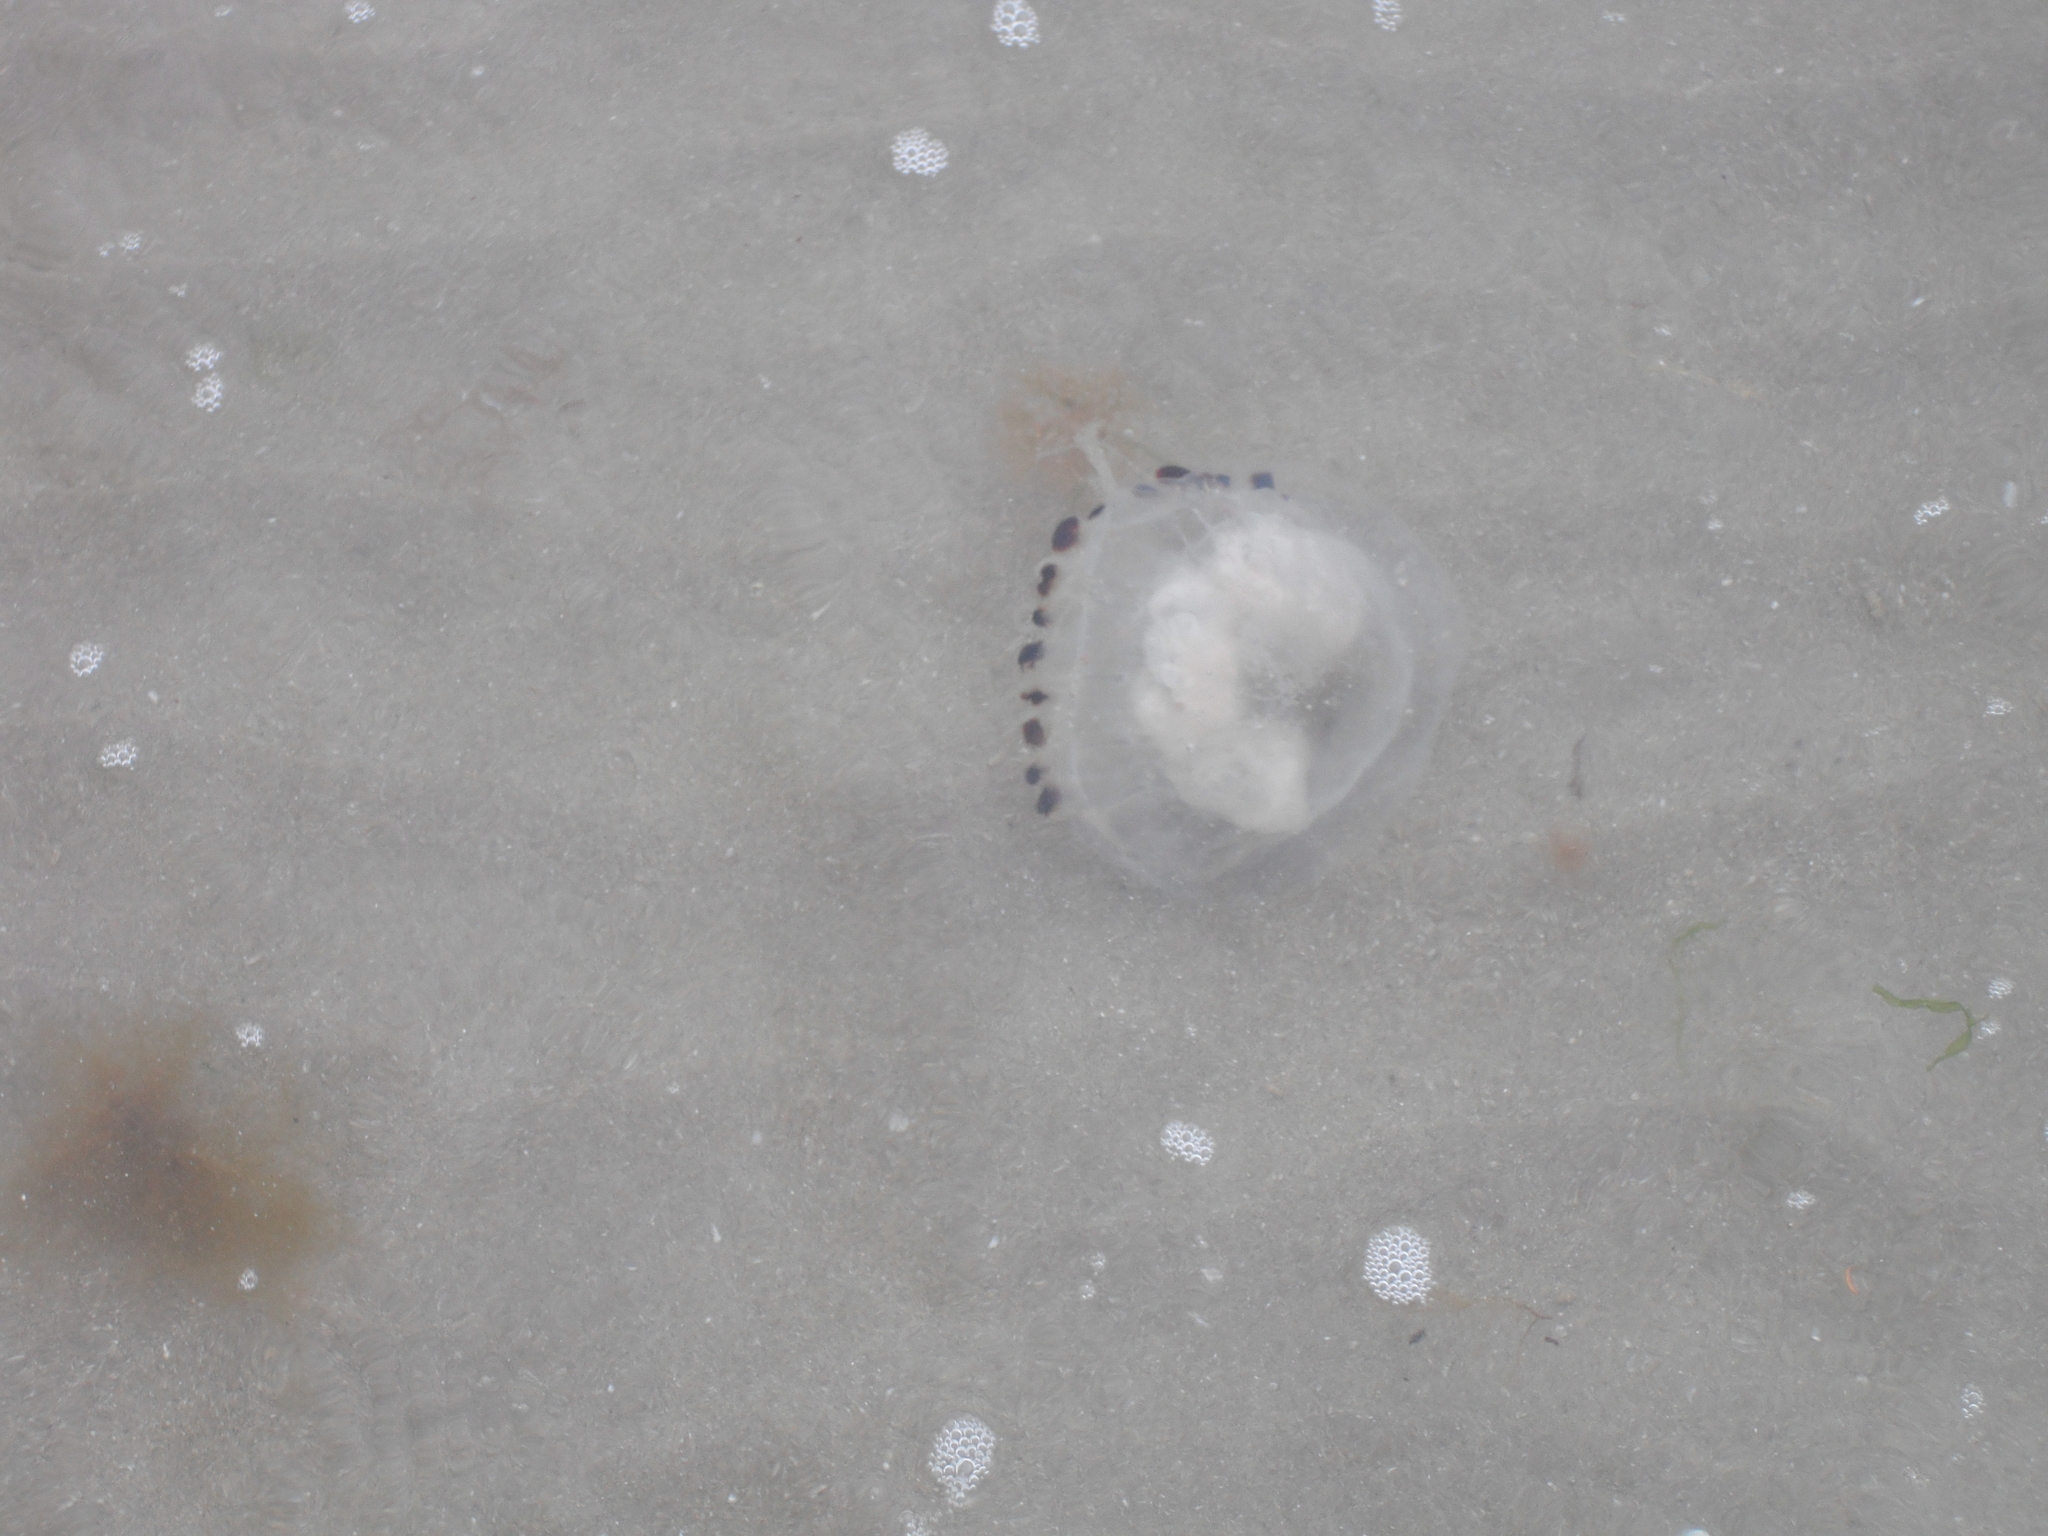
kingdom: Animalia
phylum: Cnidaria
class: Scyphozoa
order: Semaeostomeae
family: Pelagiidae
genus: Chrysaora
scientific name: Chrysaora hysoscella
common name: Compass jellyfish
